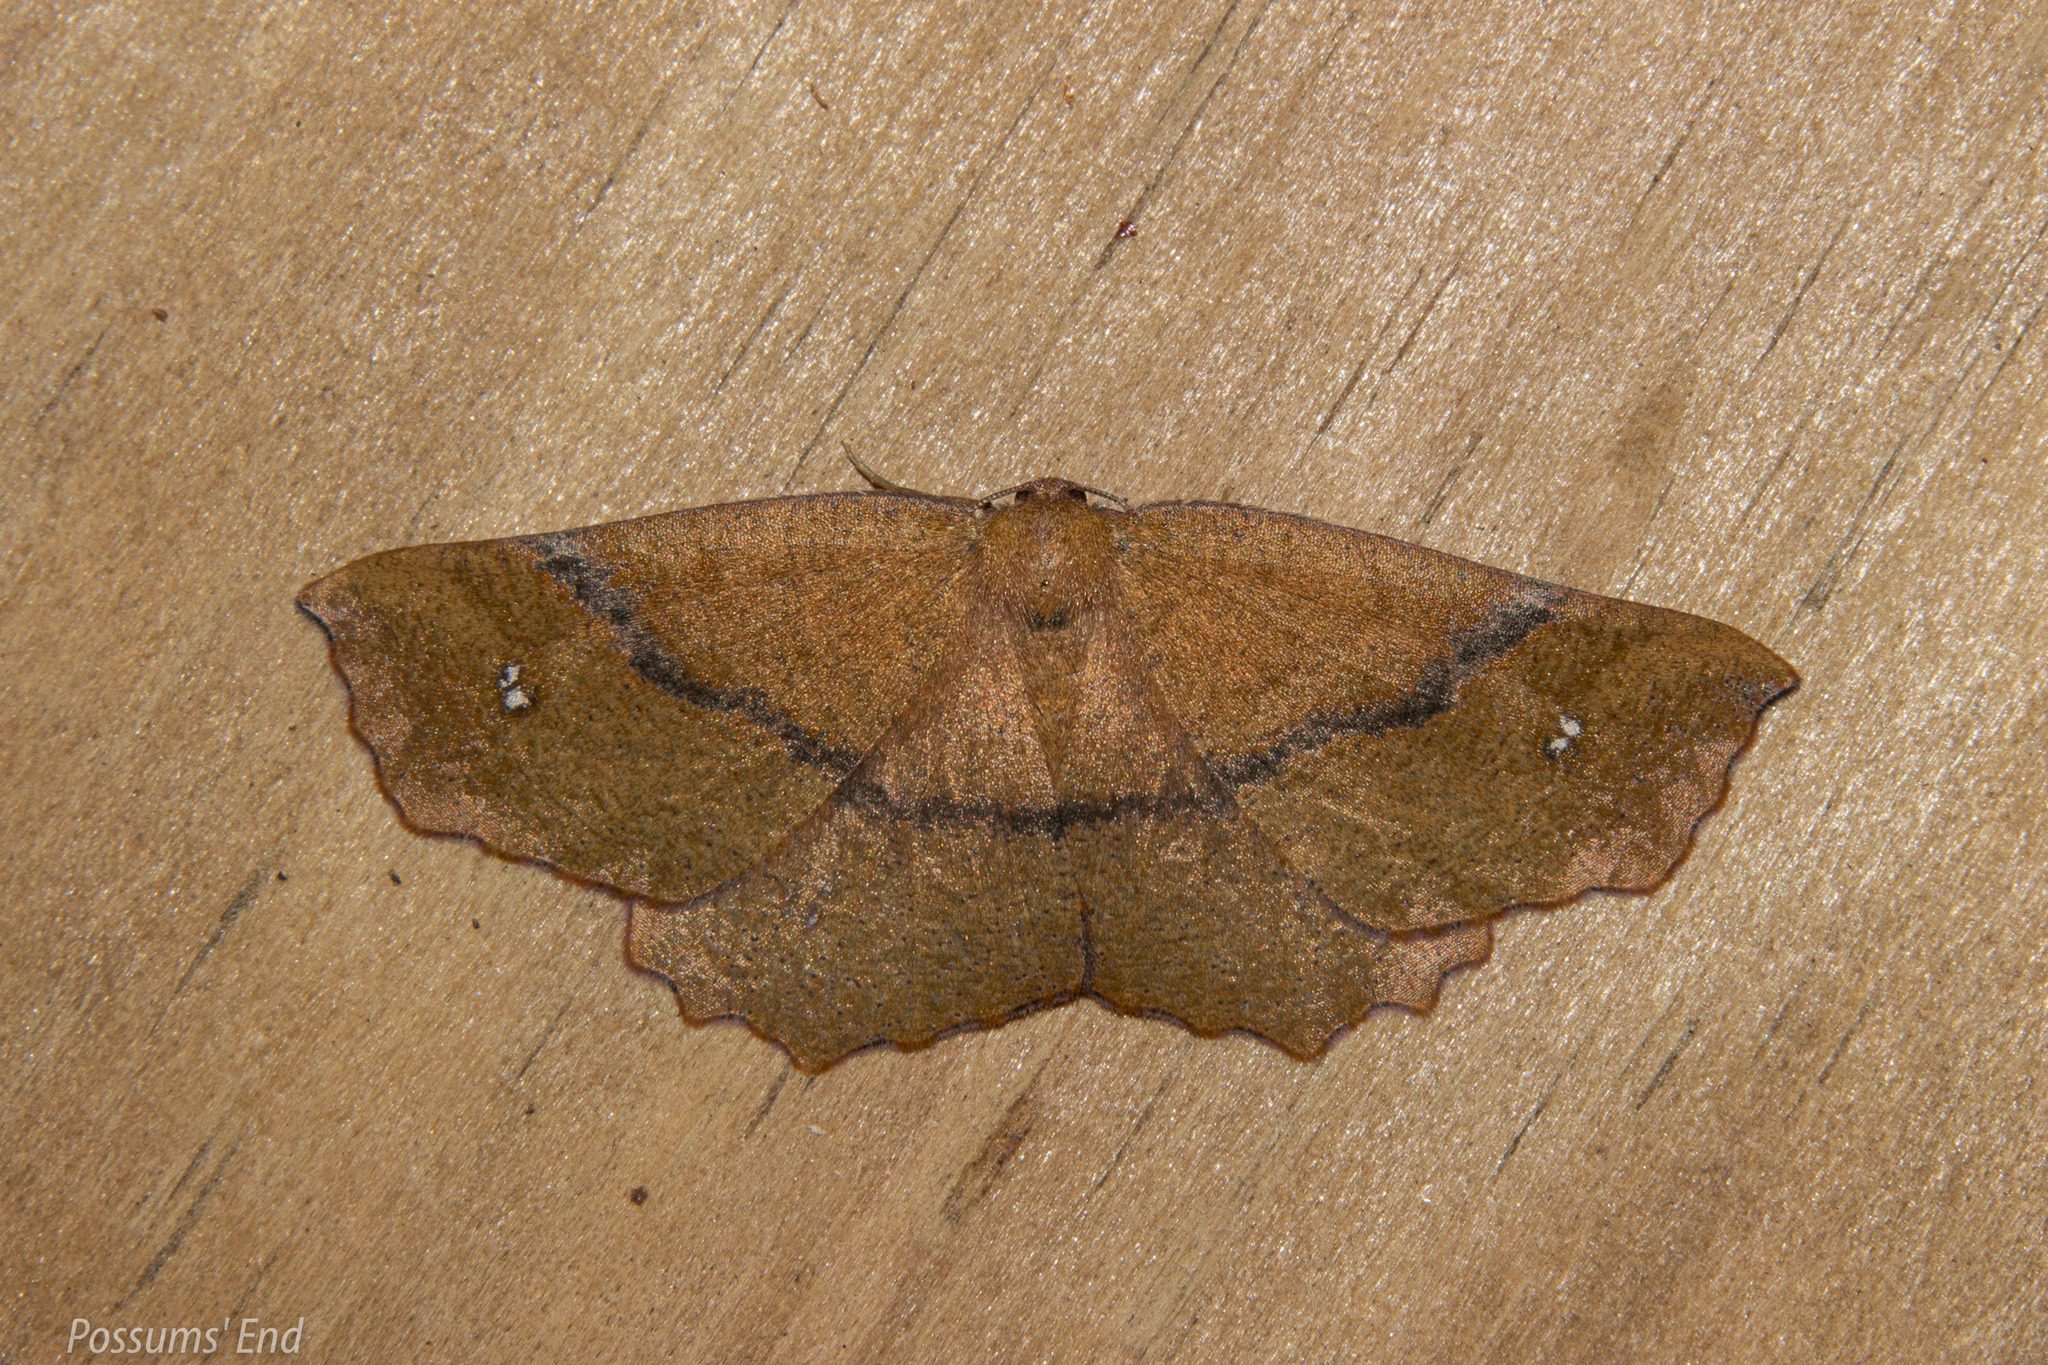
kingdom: Animalia
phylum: Arthropoda
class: Insecta
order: Lepidoptera
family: Geometridae
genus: Xyridacma
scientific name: Xyridacma ustaria
